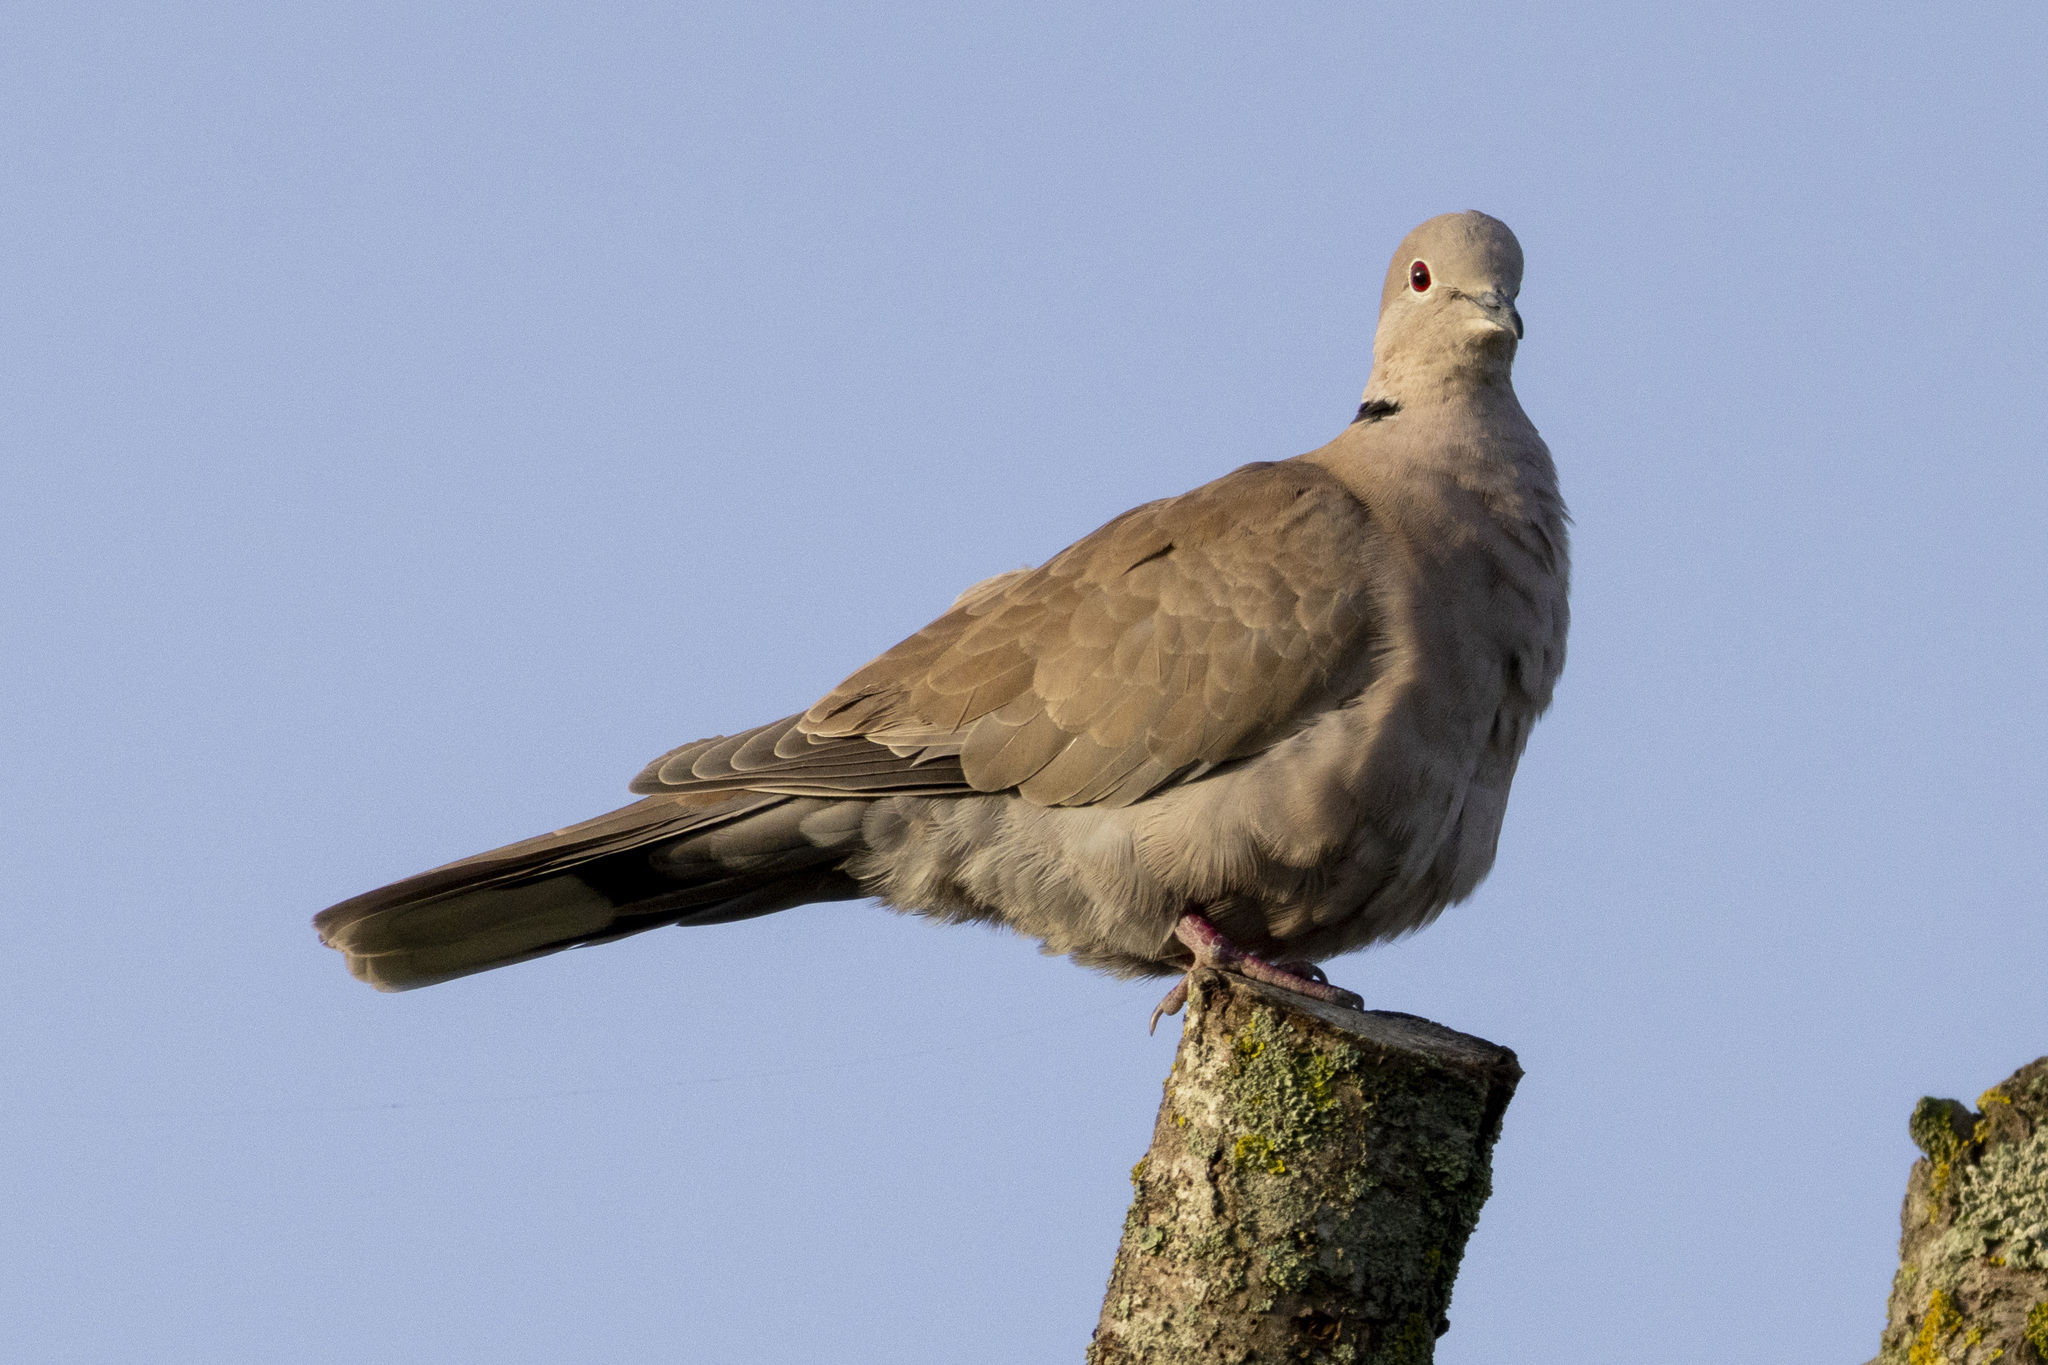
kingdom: Animalia
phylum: Chordata
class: Aves
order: Columbiformes
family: Columbidae
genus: Streptopelia
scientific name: Streptopelia decaocto
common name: Eurasian collared dove
